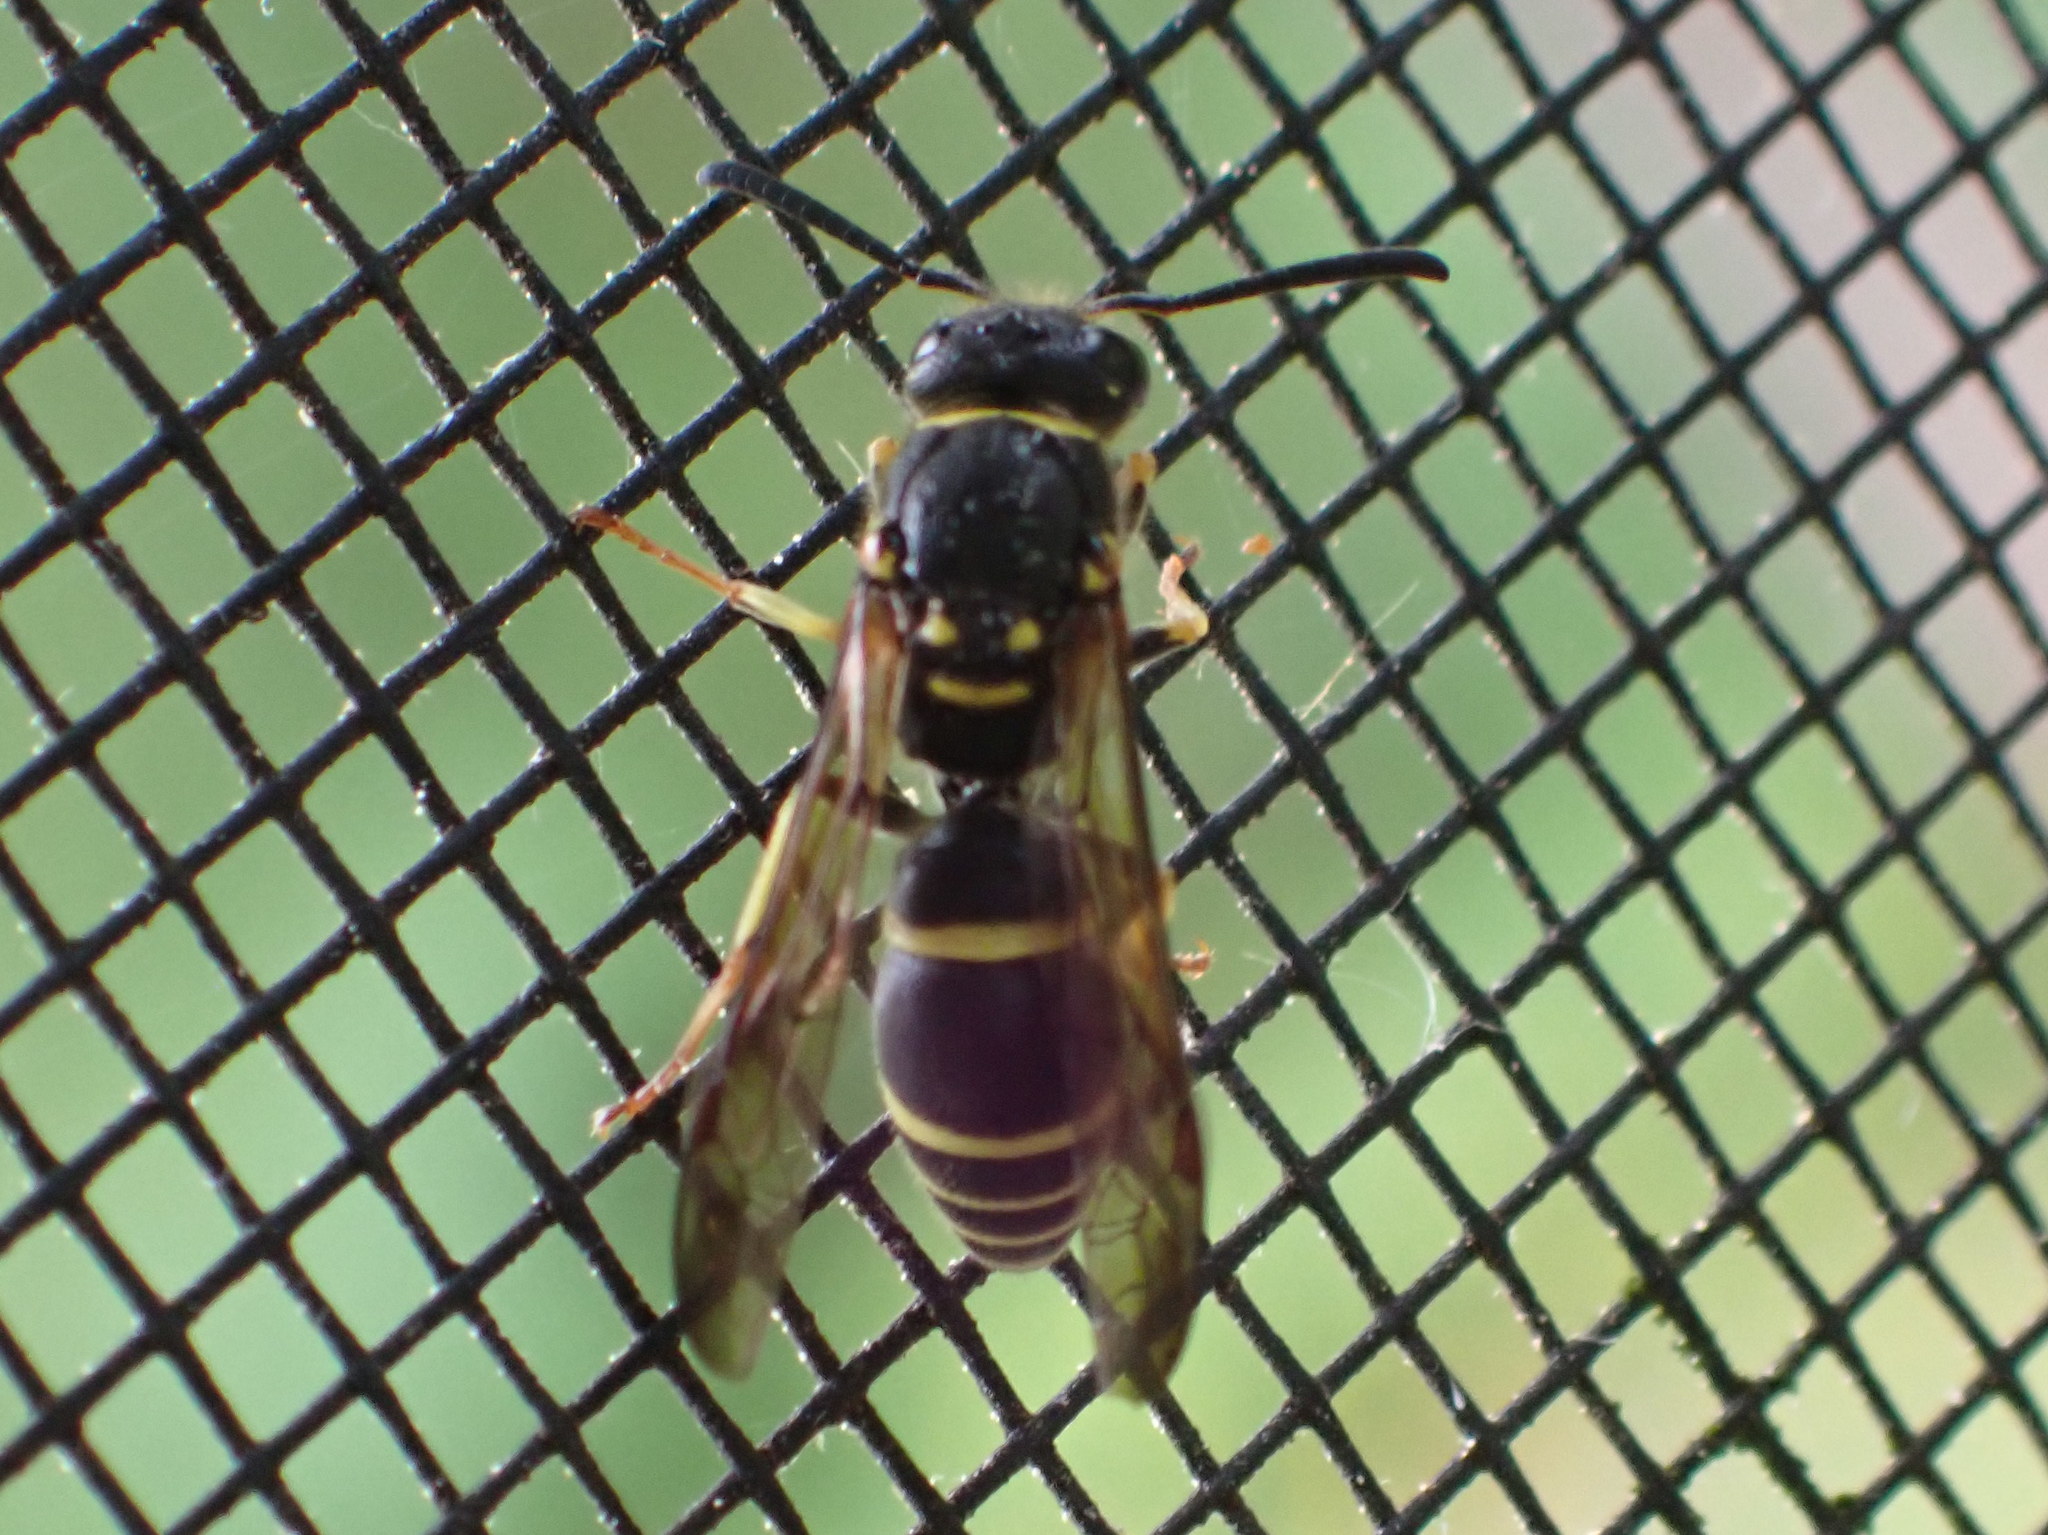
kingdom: Animalia
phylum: Arthropoda
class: Insecta
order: Hymenoptera
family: Vespidae
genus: Ancistrocerus
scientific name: Ancistrocerus adiabatus
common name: Bramble mason wasp
